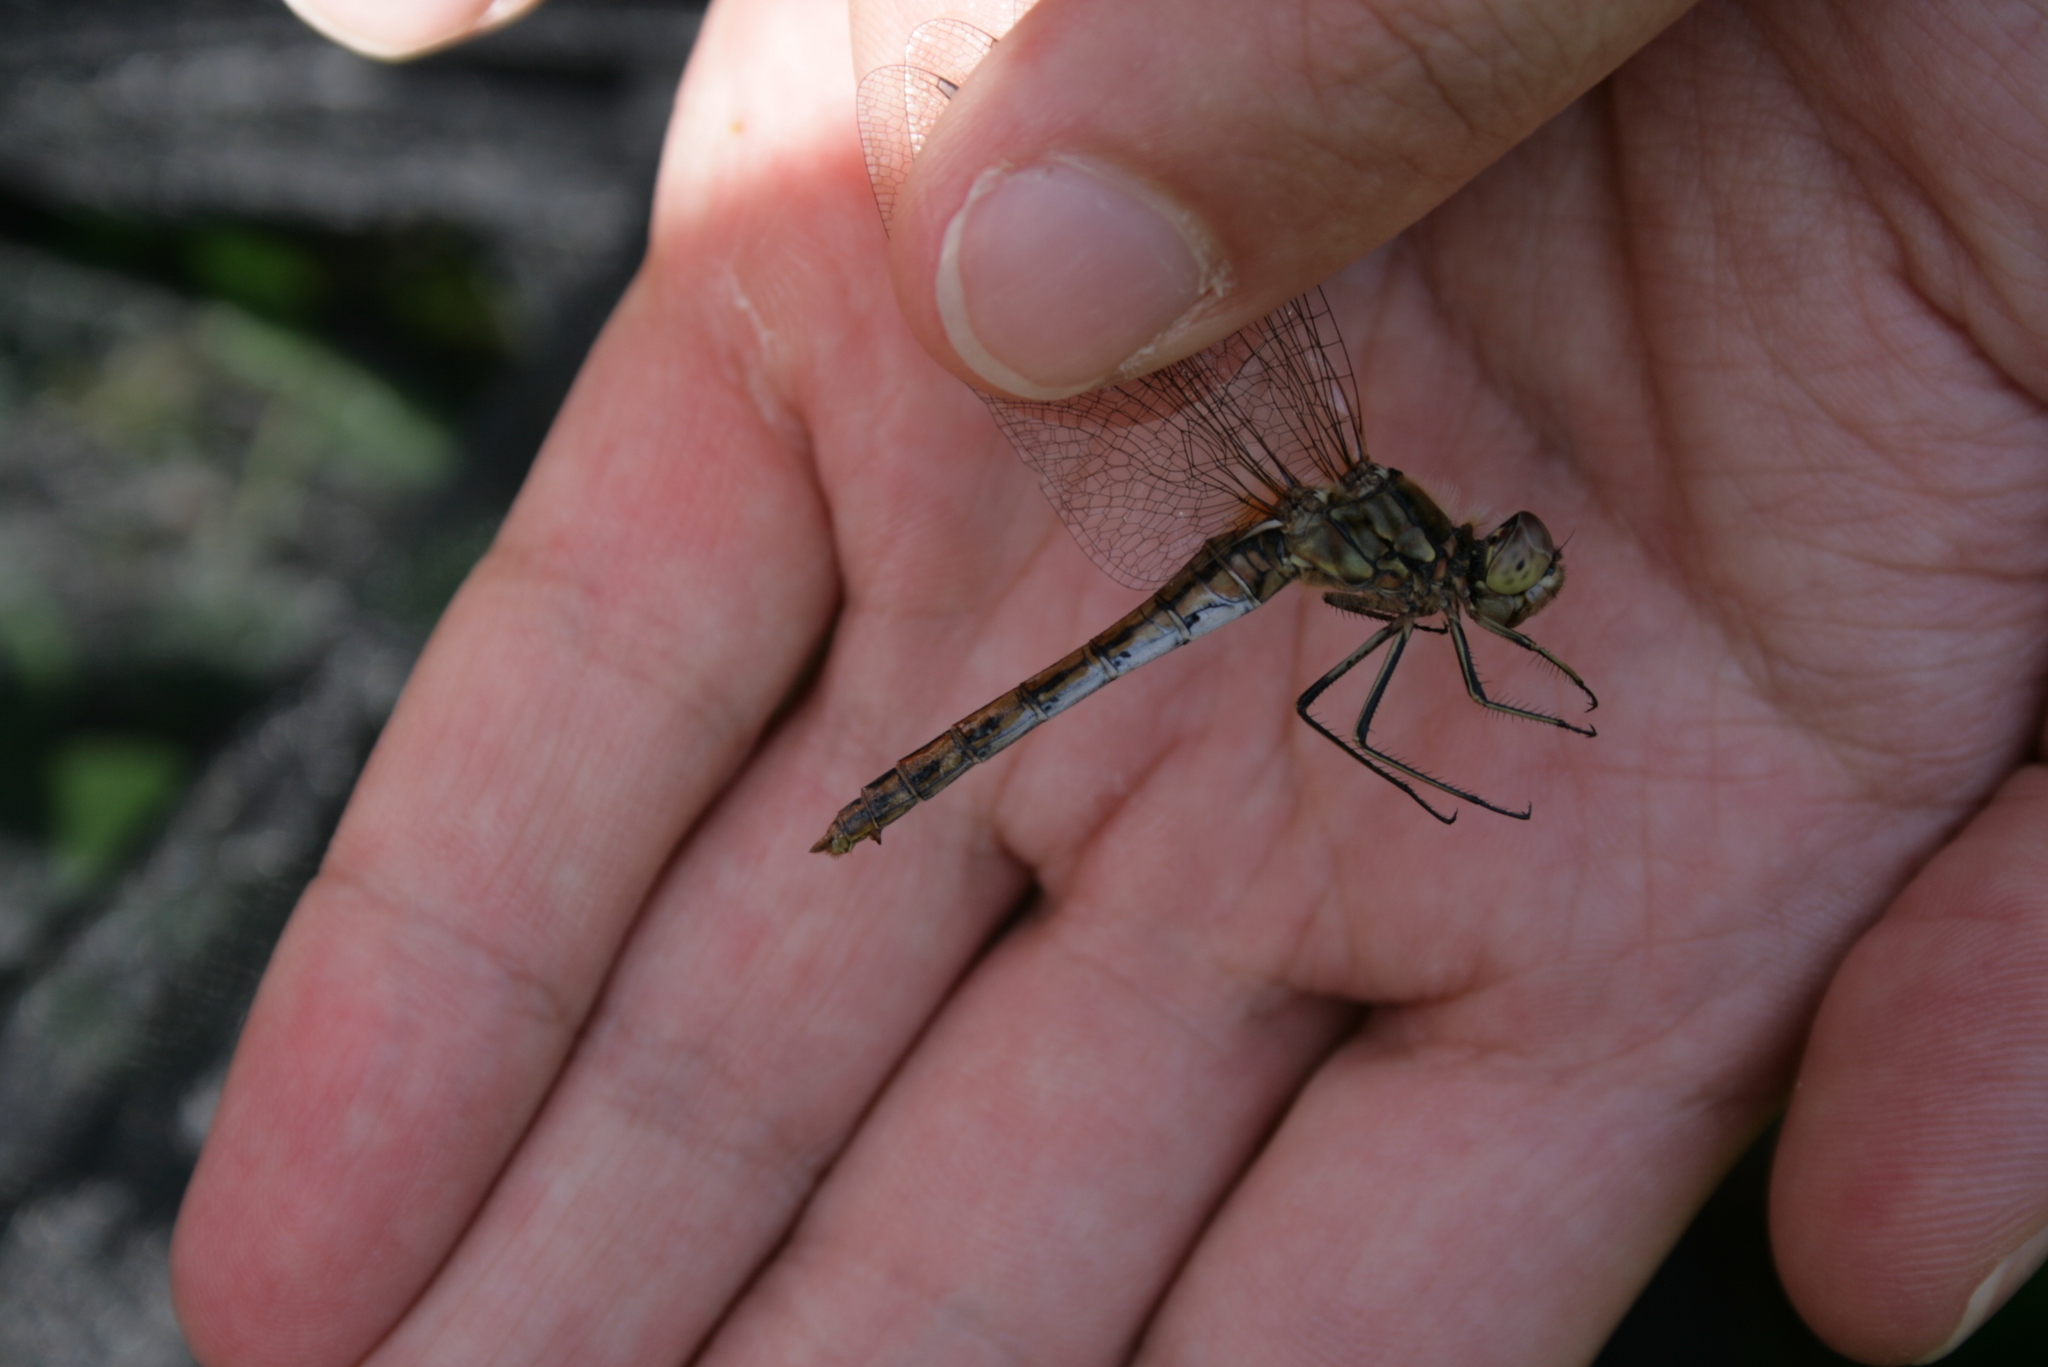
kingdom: Animalia
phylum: Arthropoda
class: Insecta
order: Odonata
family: Libellulidae
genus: Sympetrum
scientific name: Sympetrum vulgatum
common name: Vagrant darter
